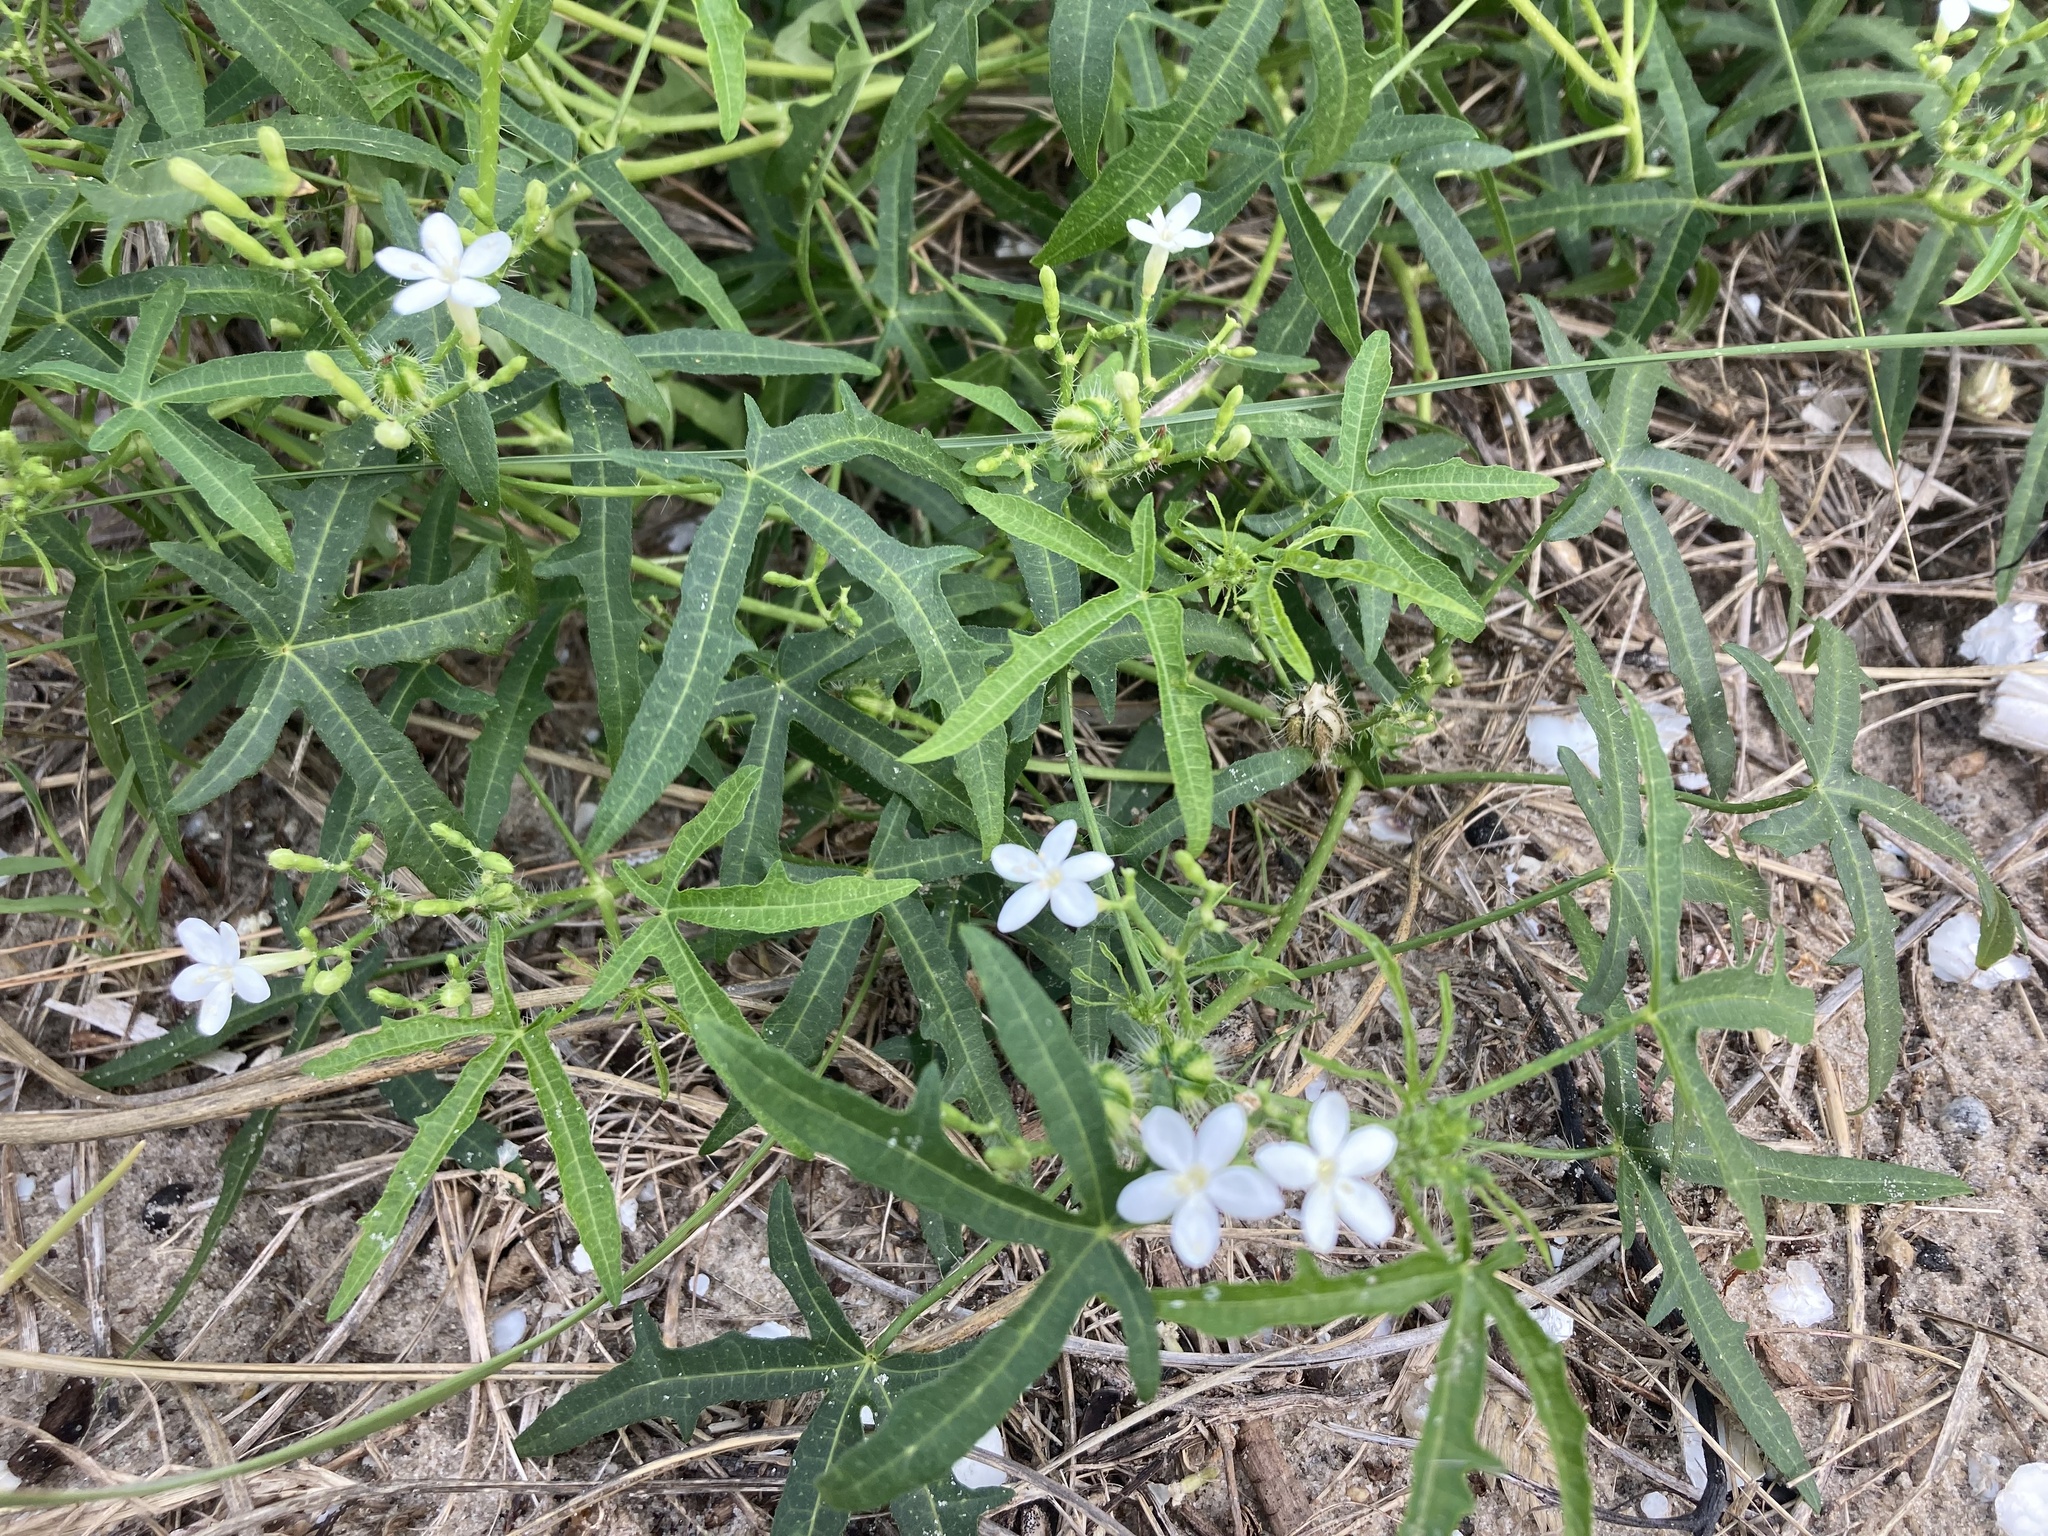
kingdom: Plantae
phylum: Tracheophyta
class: Magnoliopsida
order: Malpighiales
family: Euphorbiaceae
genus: Cnidoscolus
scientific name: Cnidoscolus stimulosus
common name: Bull-nettle
